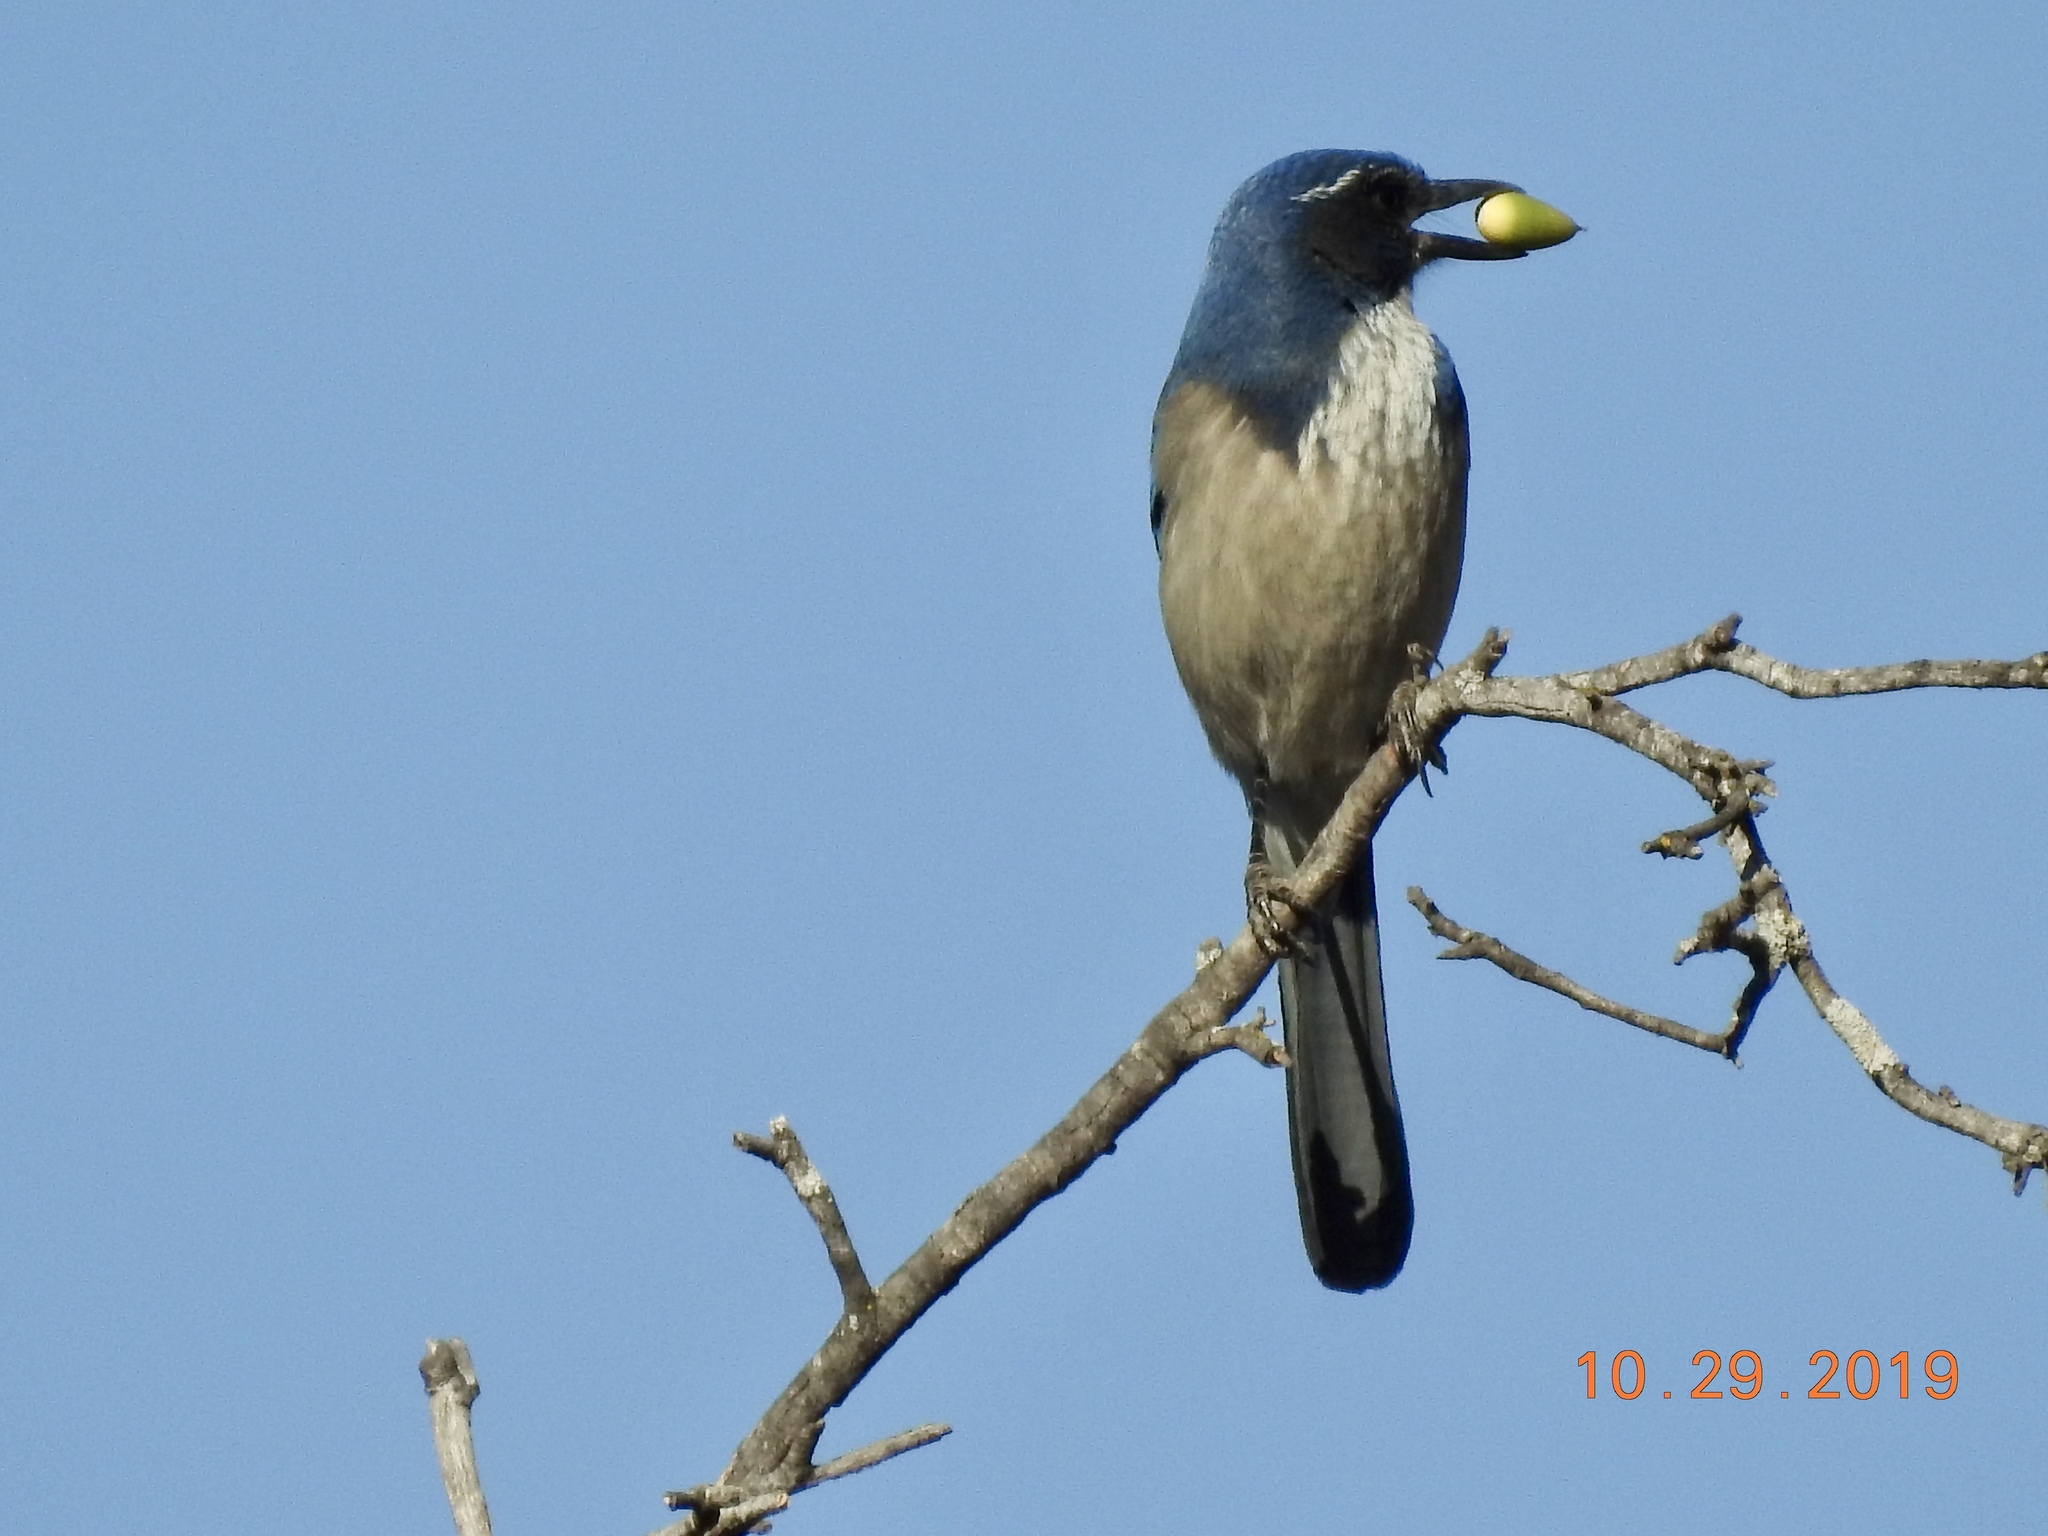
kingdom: Animalia
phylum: Chordata
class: Aves
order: Passeriformes
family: Corvidae
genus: Aphelocoma
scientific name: Aphelocoma californica
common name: California scrub-jay
